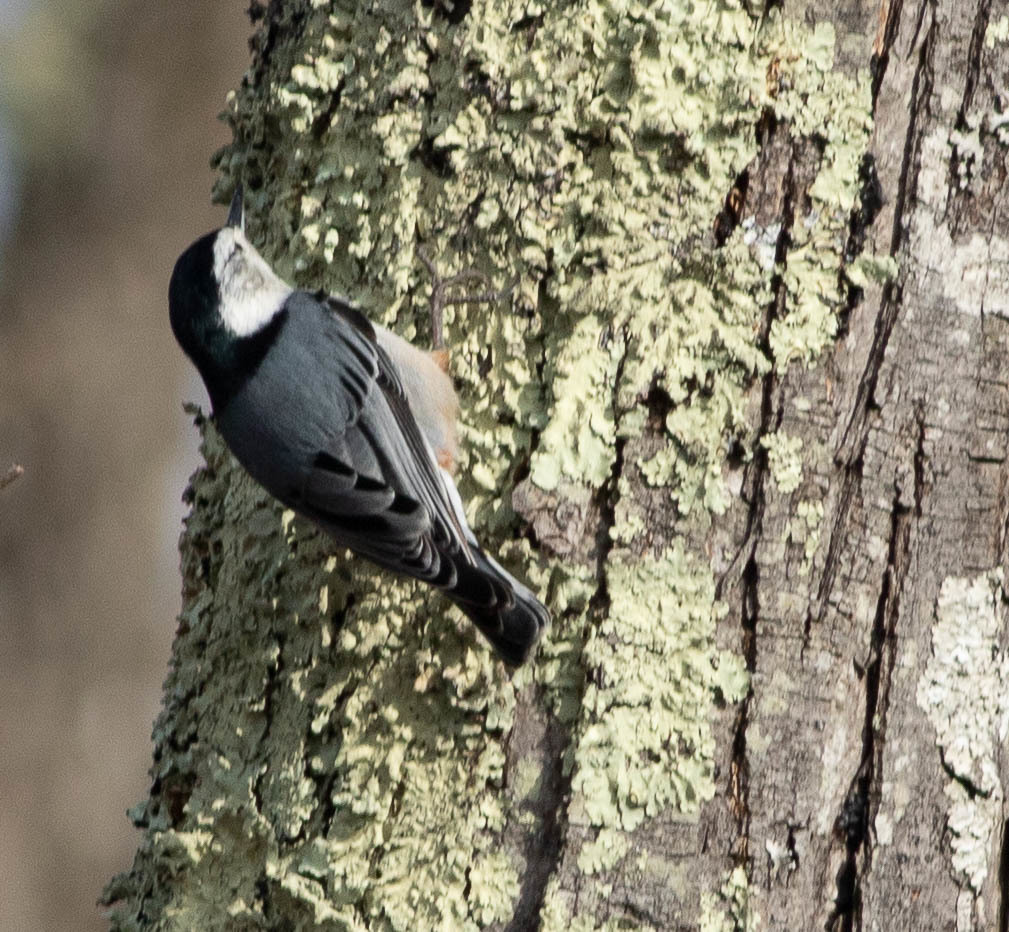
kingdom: Animalia
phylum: Chordata
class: Aves
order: Passeriformes
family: Sittidae
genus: Sitta
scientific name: Sitta carolinensis
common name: White-breasted nuthatch
